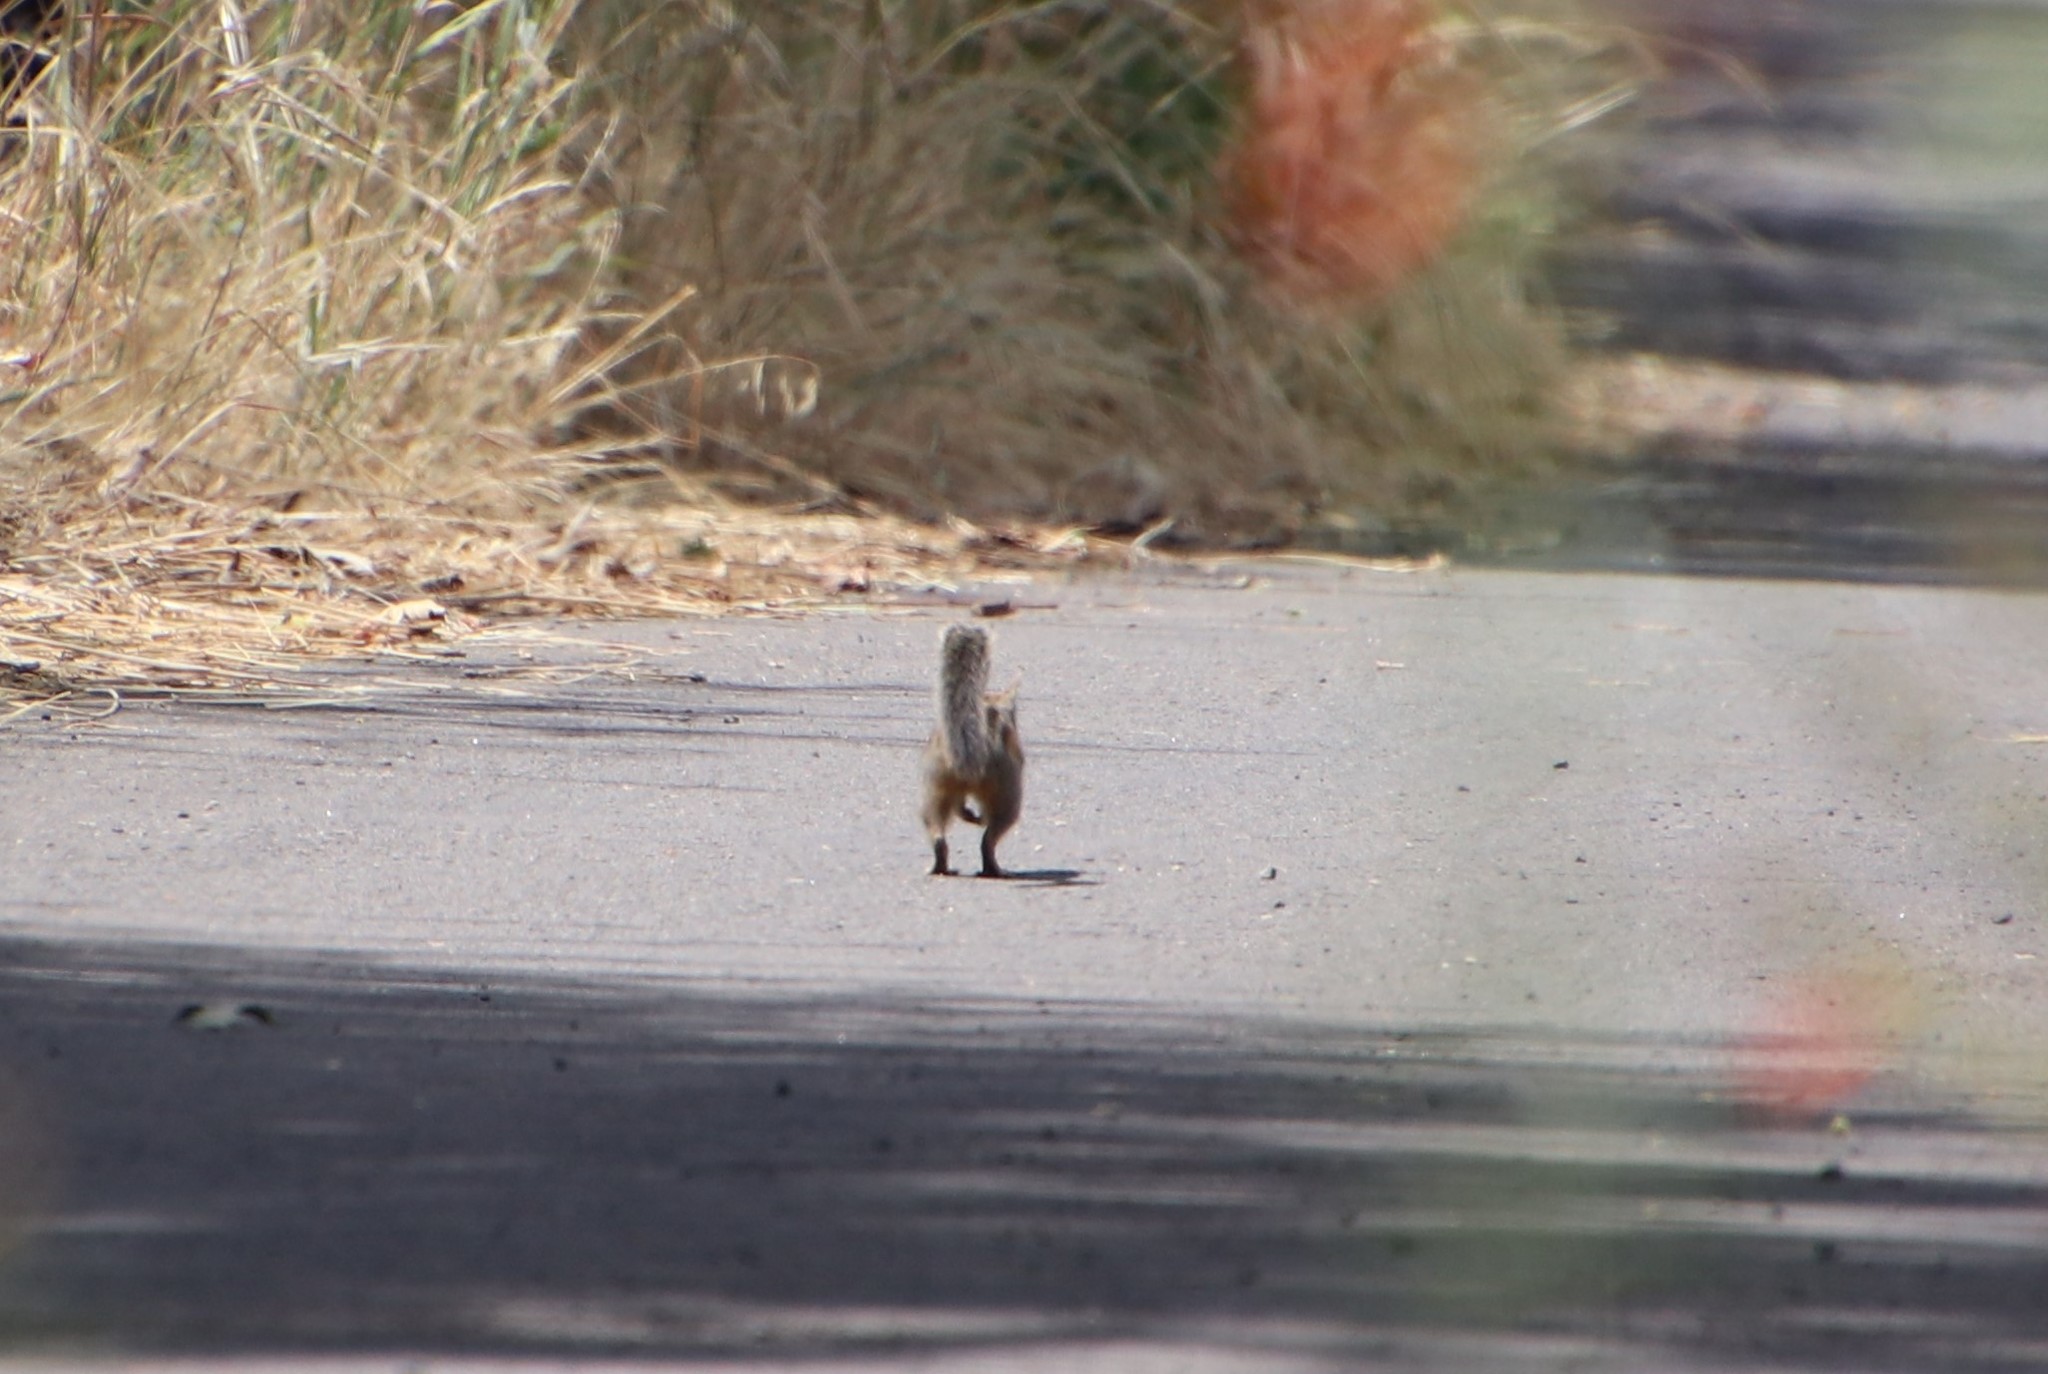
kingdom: Animalia
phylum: Chordata
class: Mammalia
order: Rodentia
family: Sciuridae
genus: Tamias
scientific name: Tamias merriami
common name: Merriam's chipmunk
